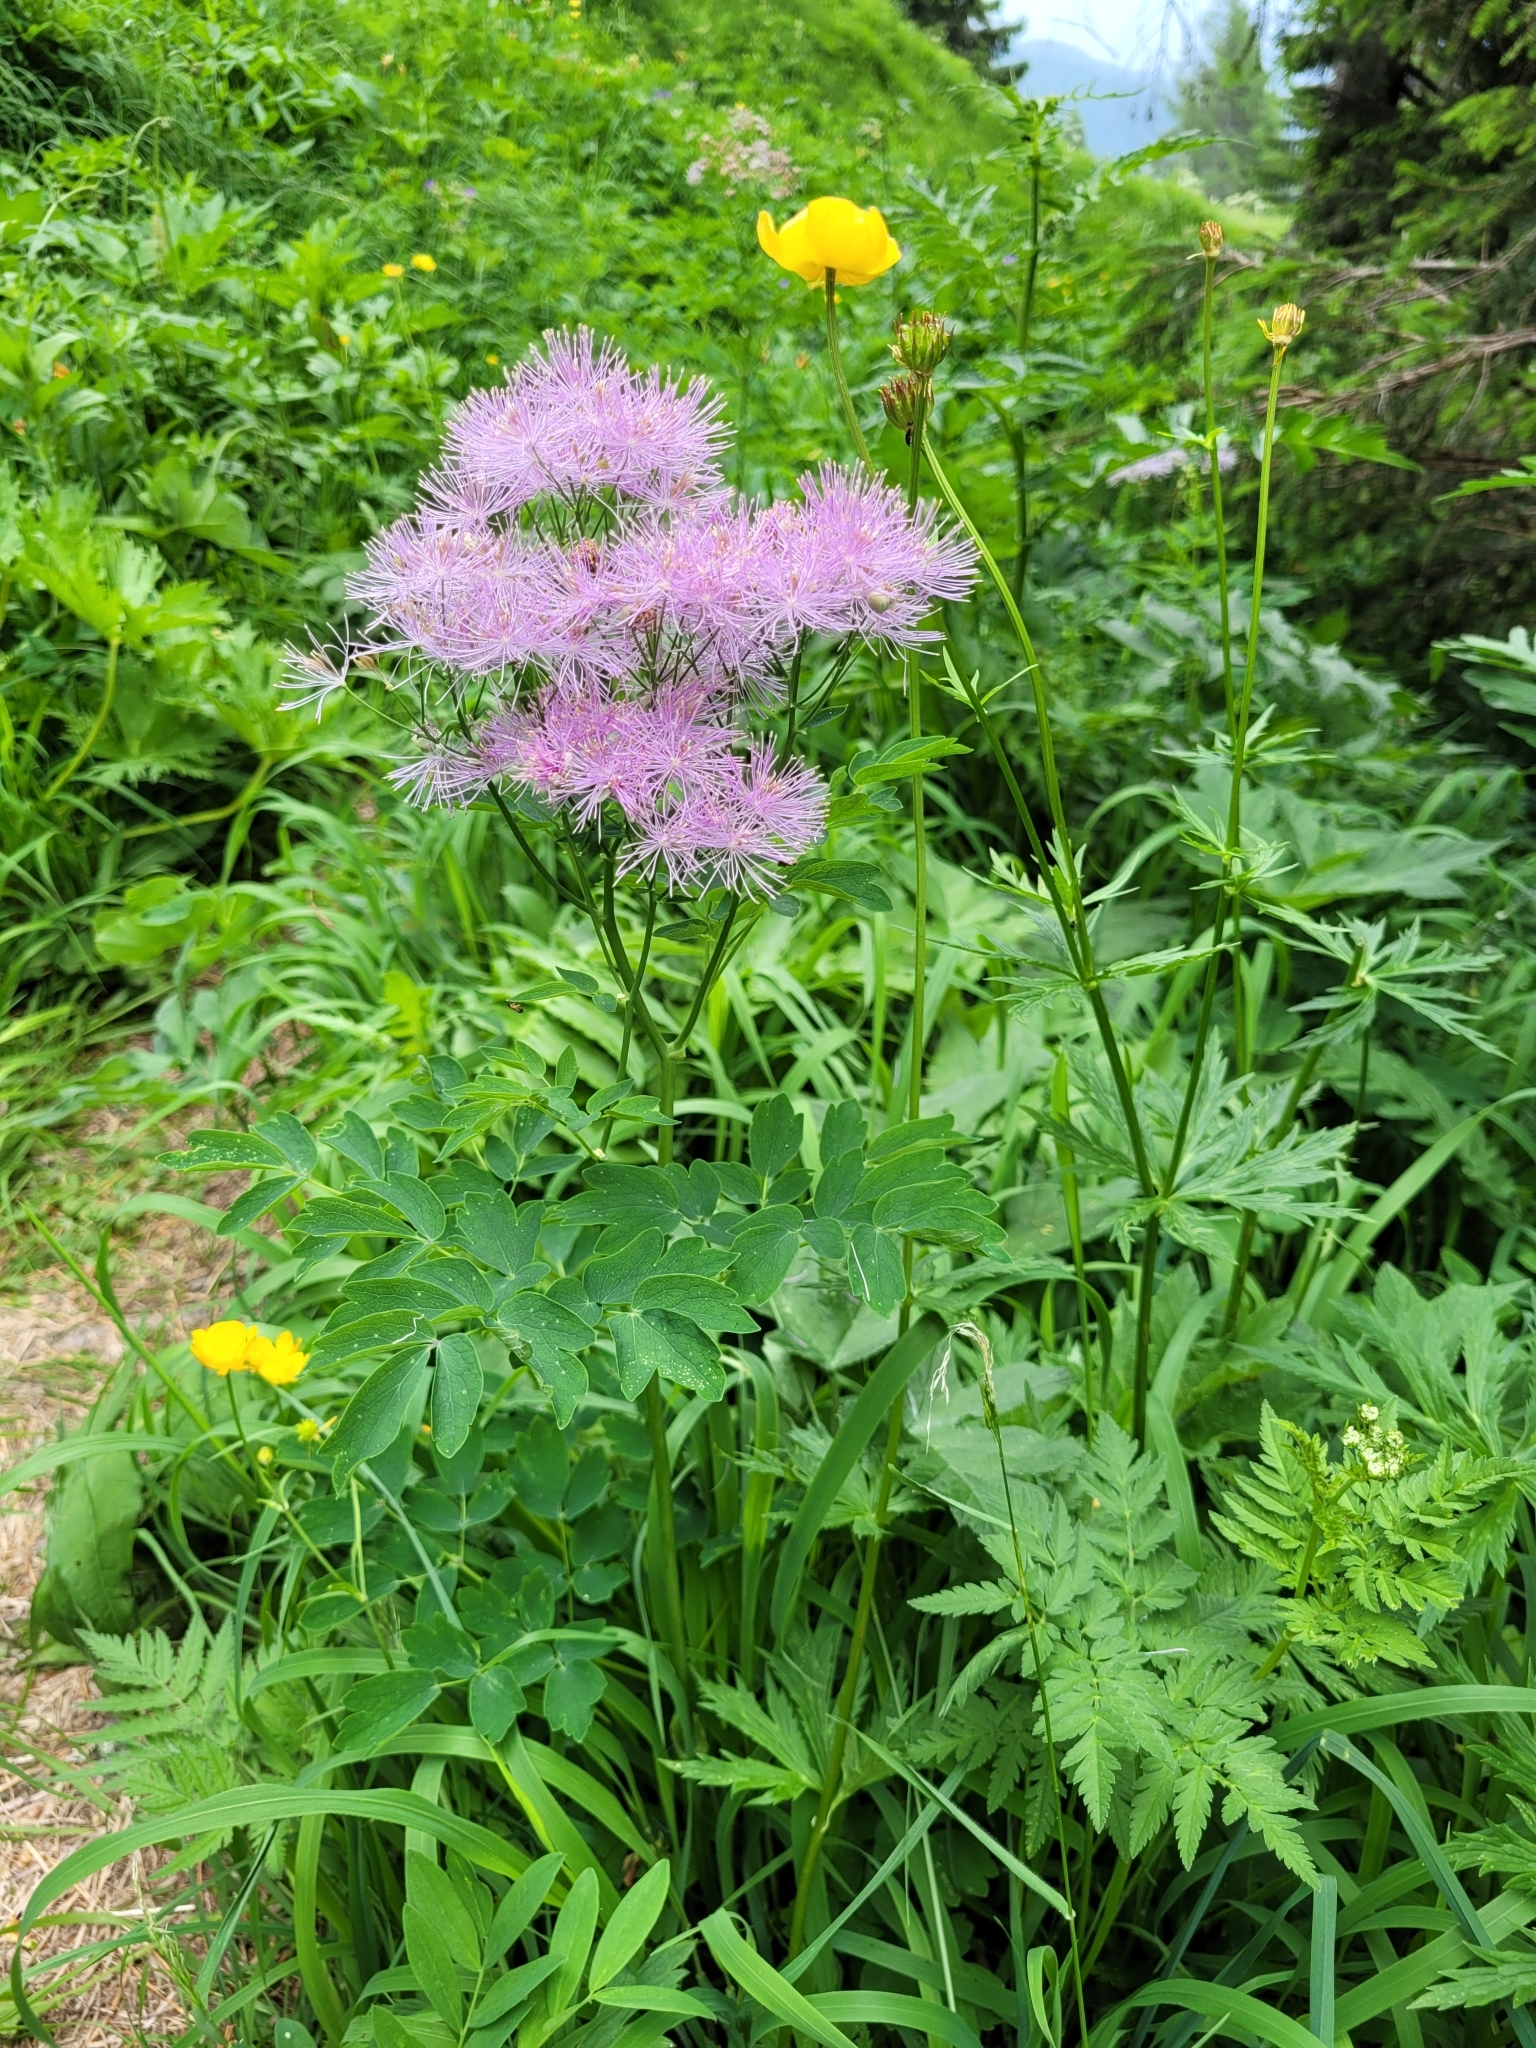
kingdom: Plantae
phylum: Tracheophyta
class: Magnoliopsida
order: Ranunculales
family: Ranunculaceae
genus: Thalictrum
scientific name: Thalictrum aquilegiifolium
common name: French meadow-rue
